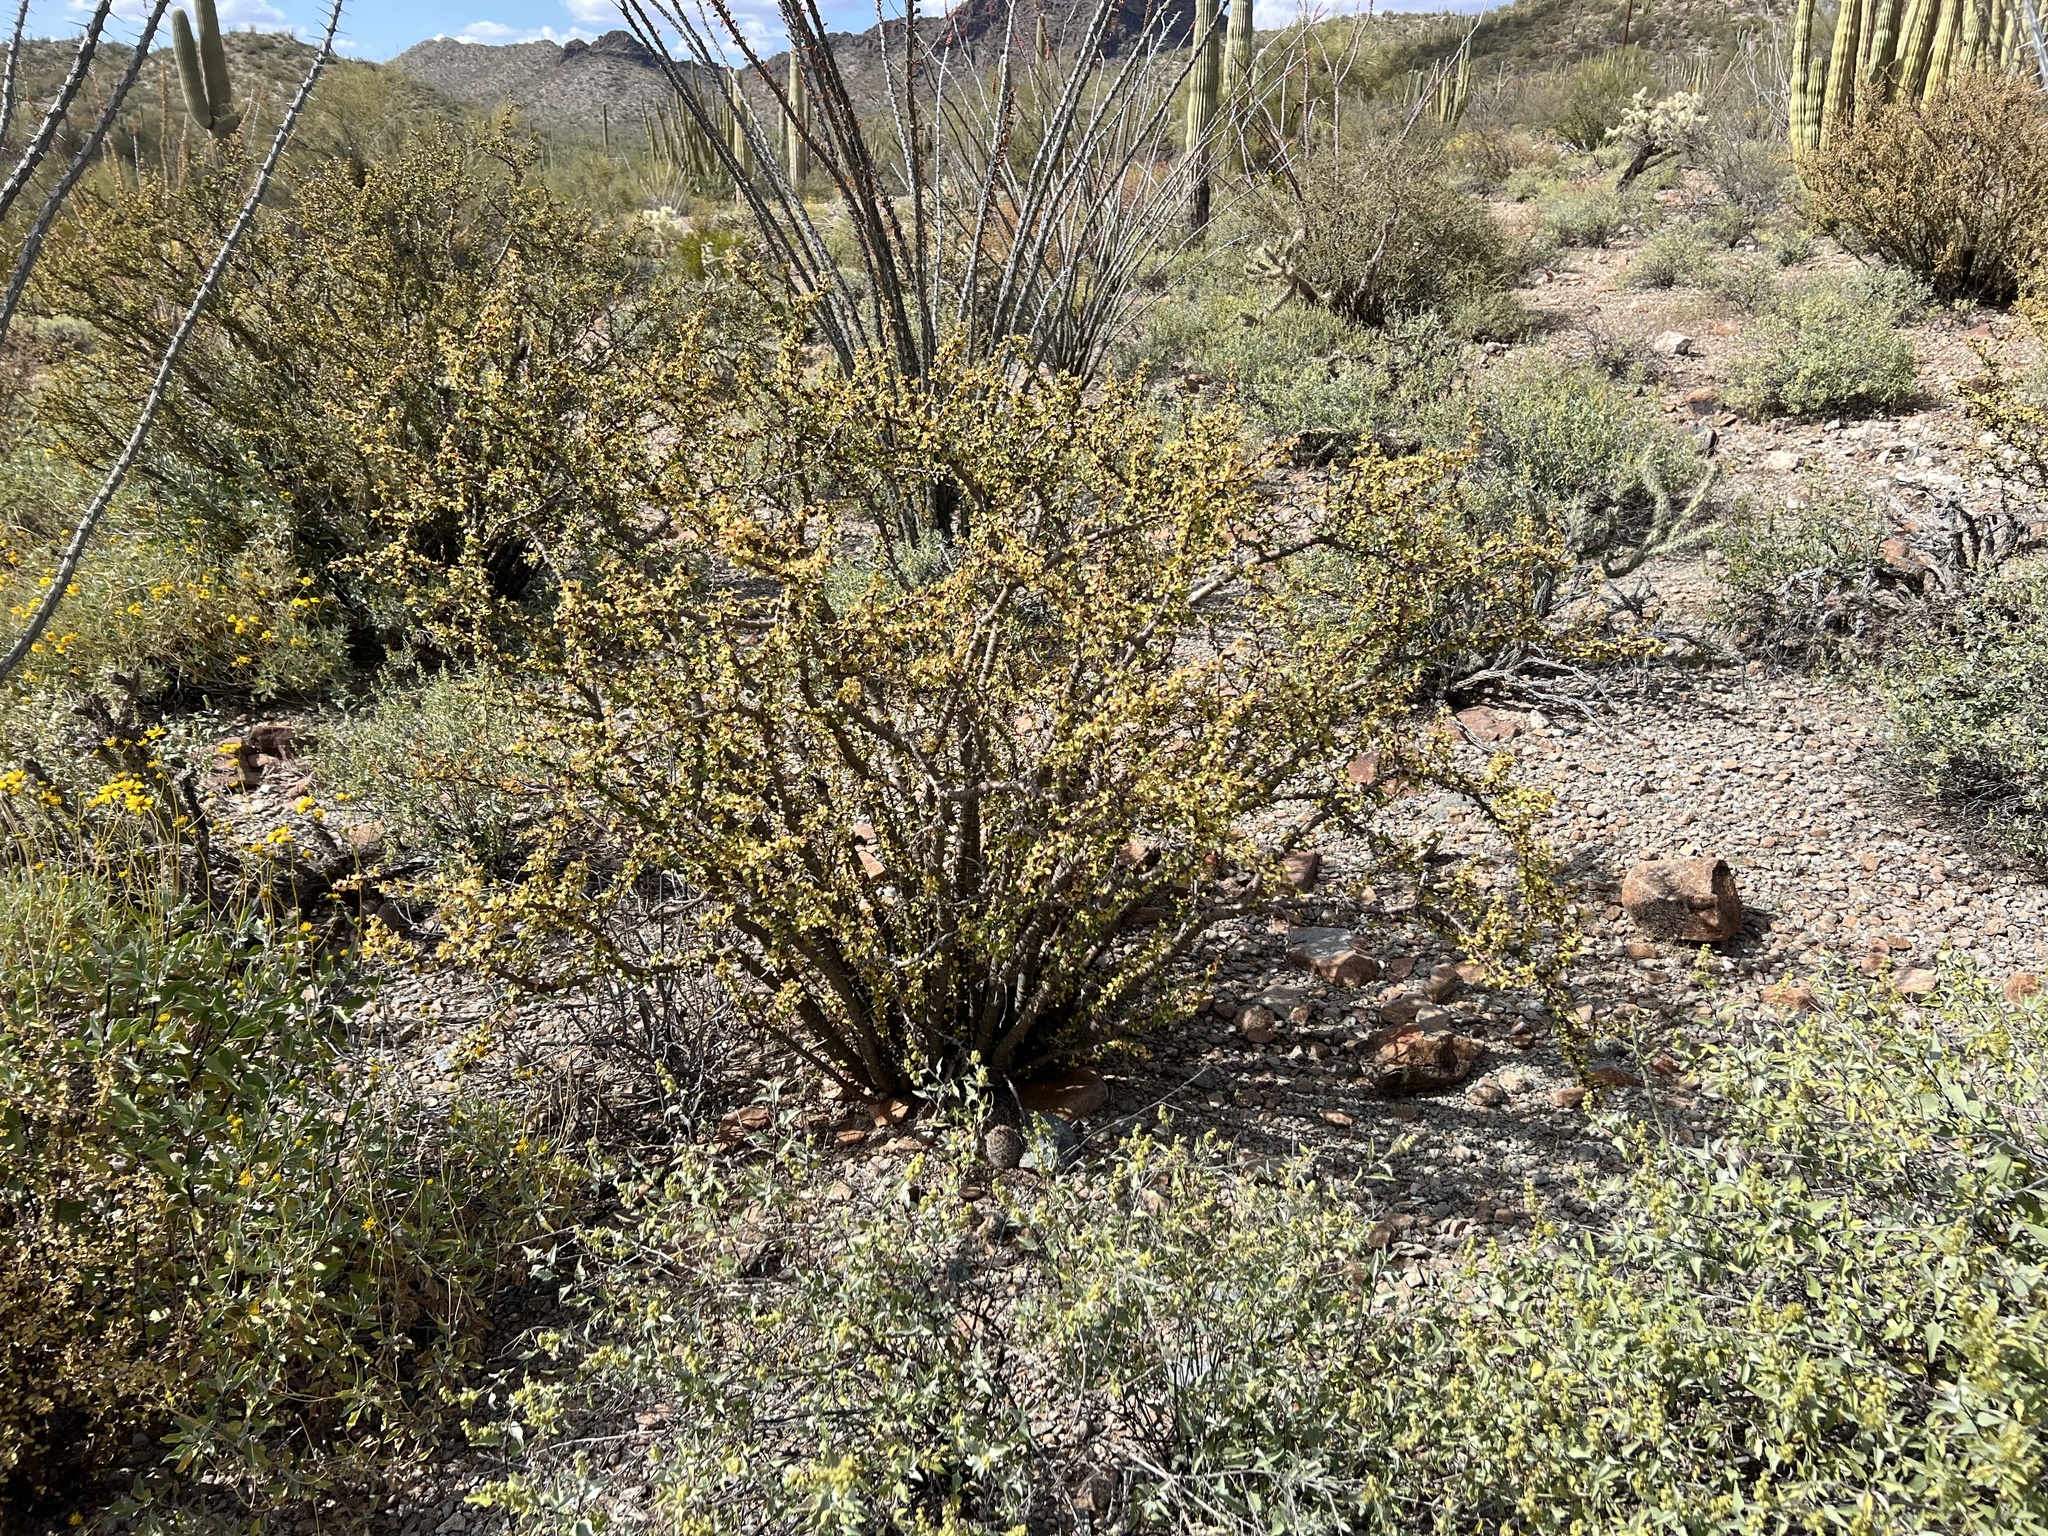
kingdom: Plantae
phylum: Tracheophyta
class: Magnoliopsida
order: Malpighiales
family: Euphorbiaceae
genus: Jatropha
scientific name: Jatropha cuneata
